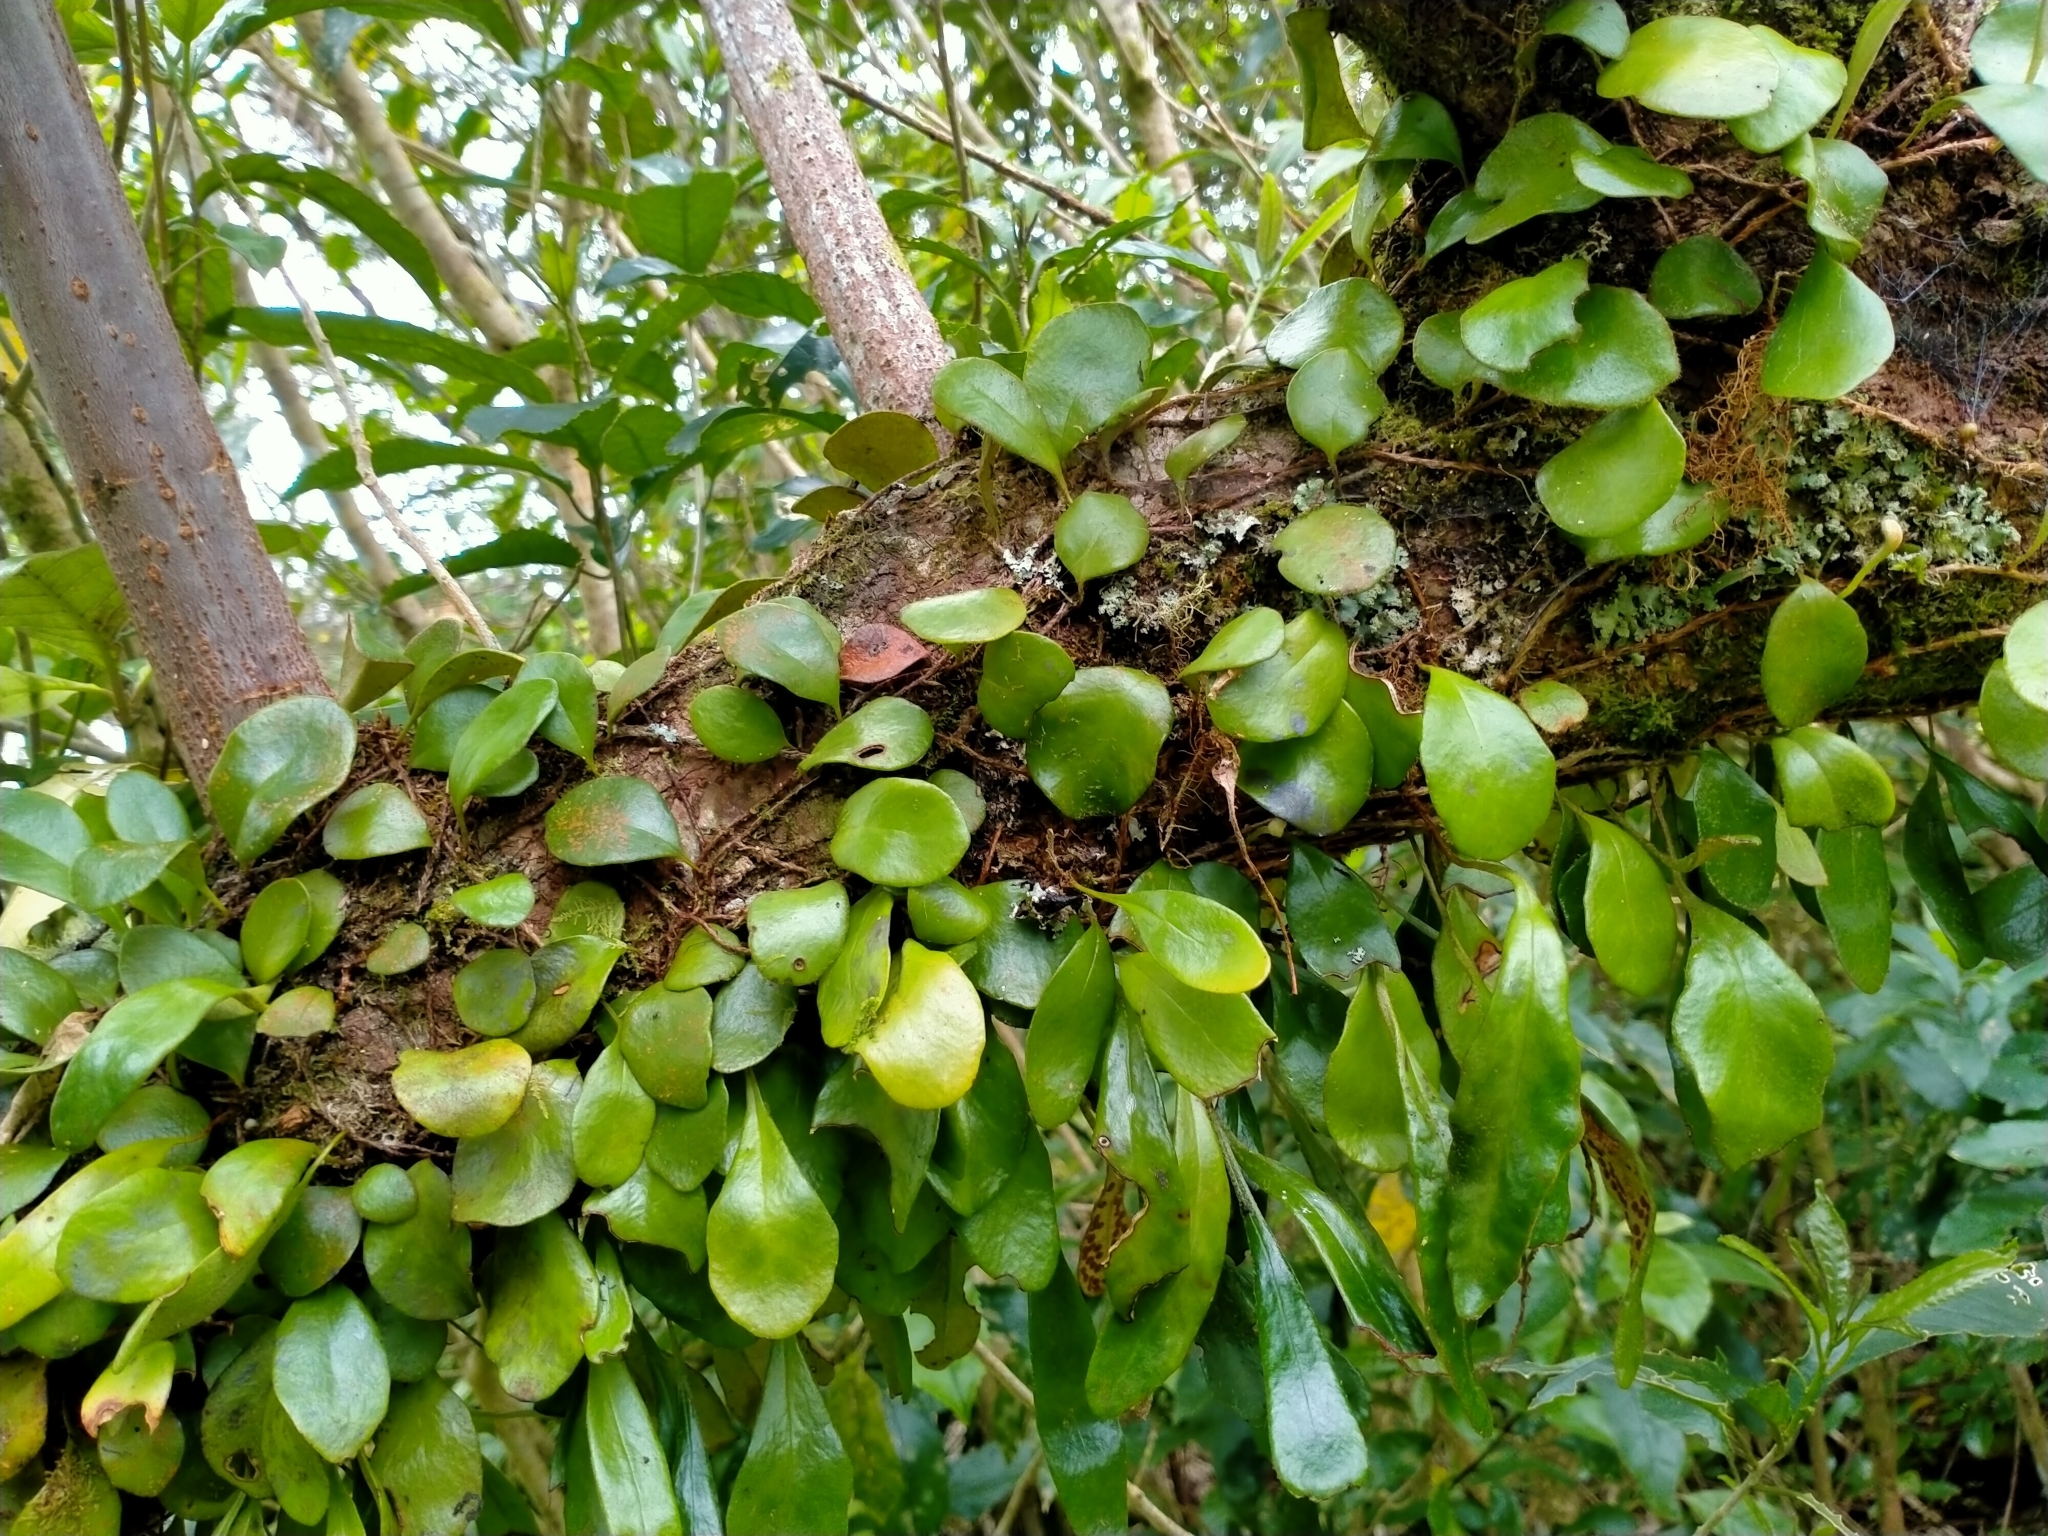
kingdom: Plantae
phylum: Tracheophyta
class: Polypodiopsida
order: Polypodiales
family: Polypodiaceae
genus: Pyrrosia
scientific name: Pyrrosia eleagnifolia
